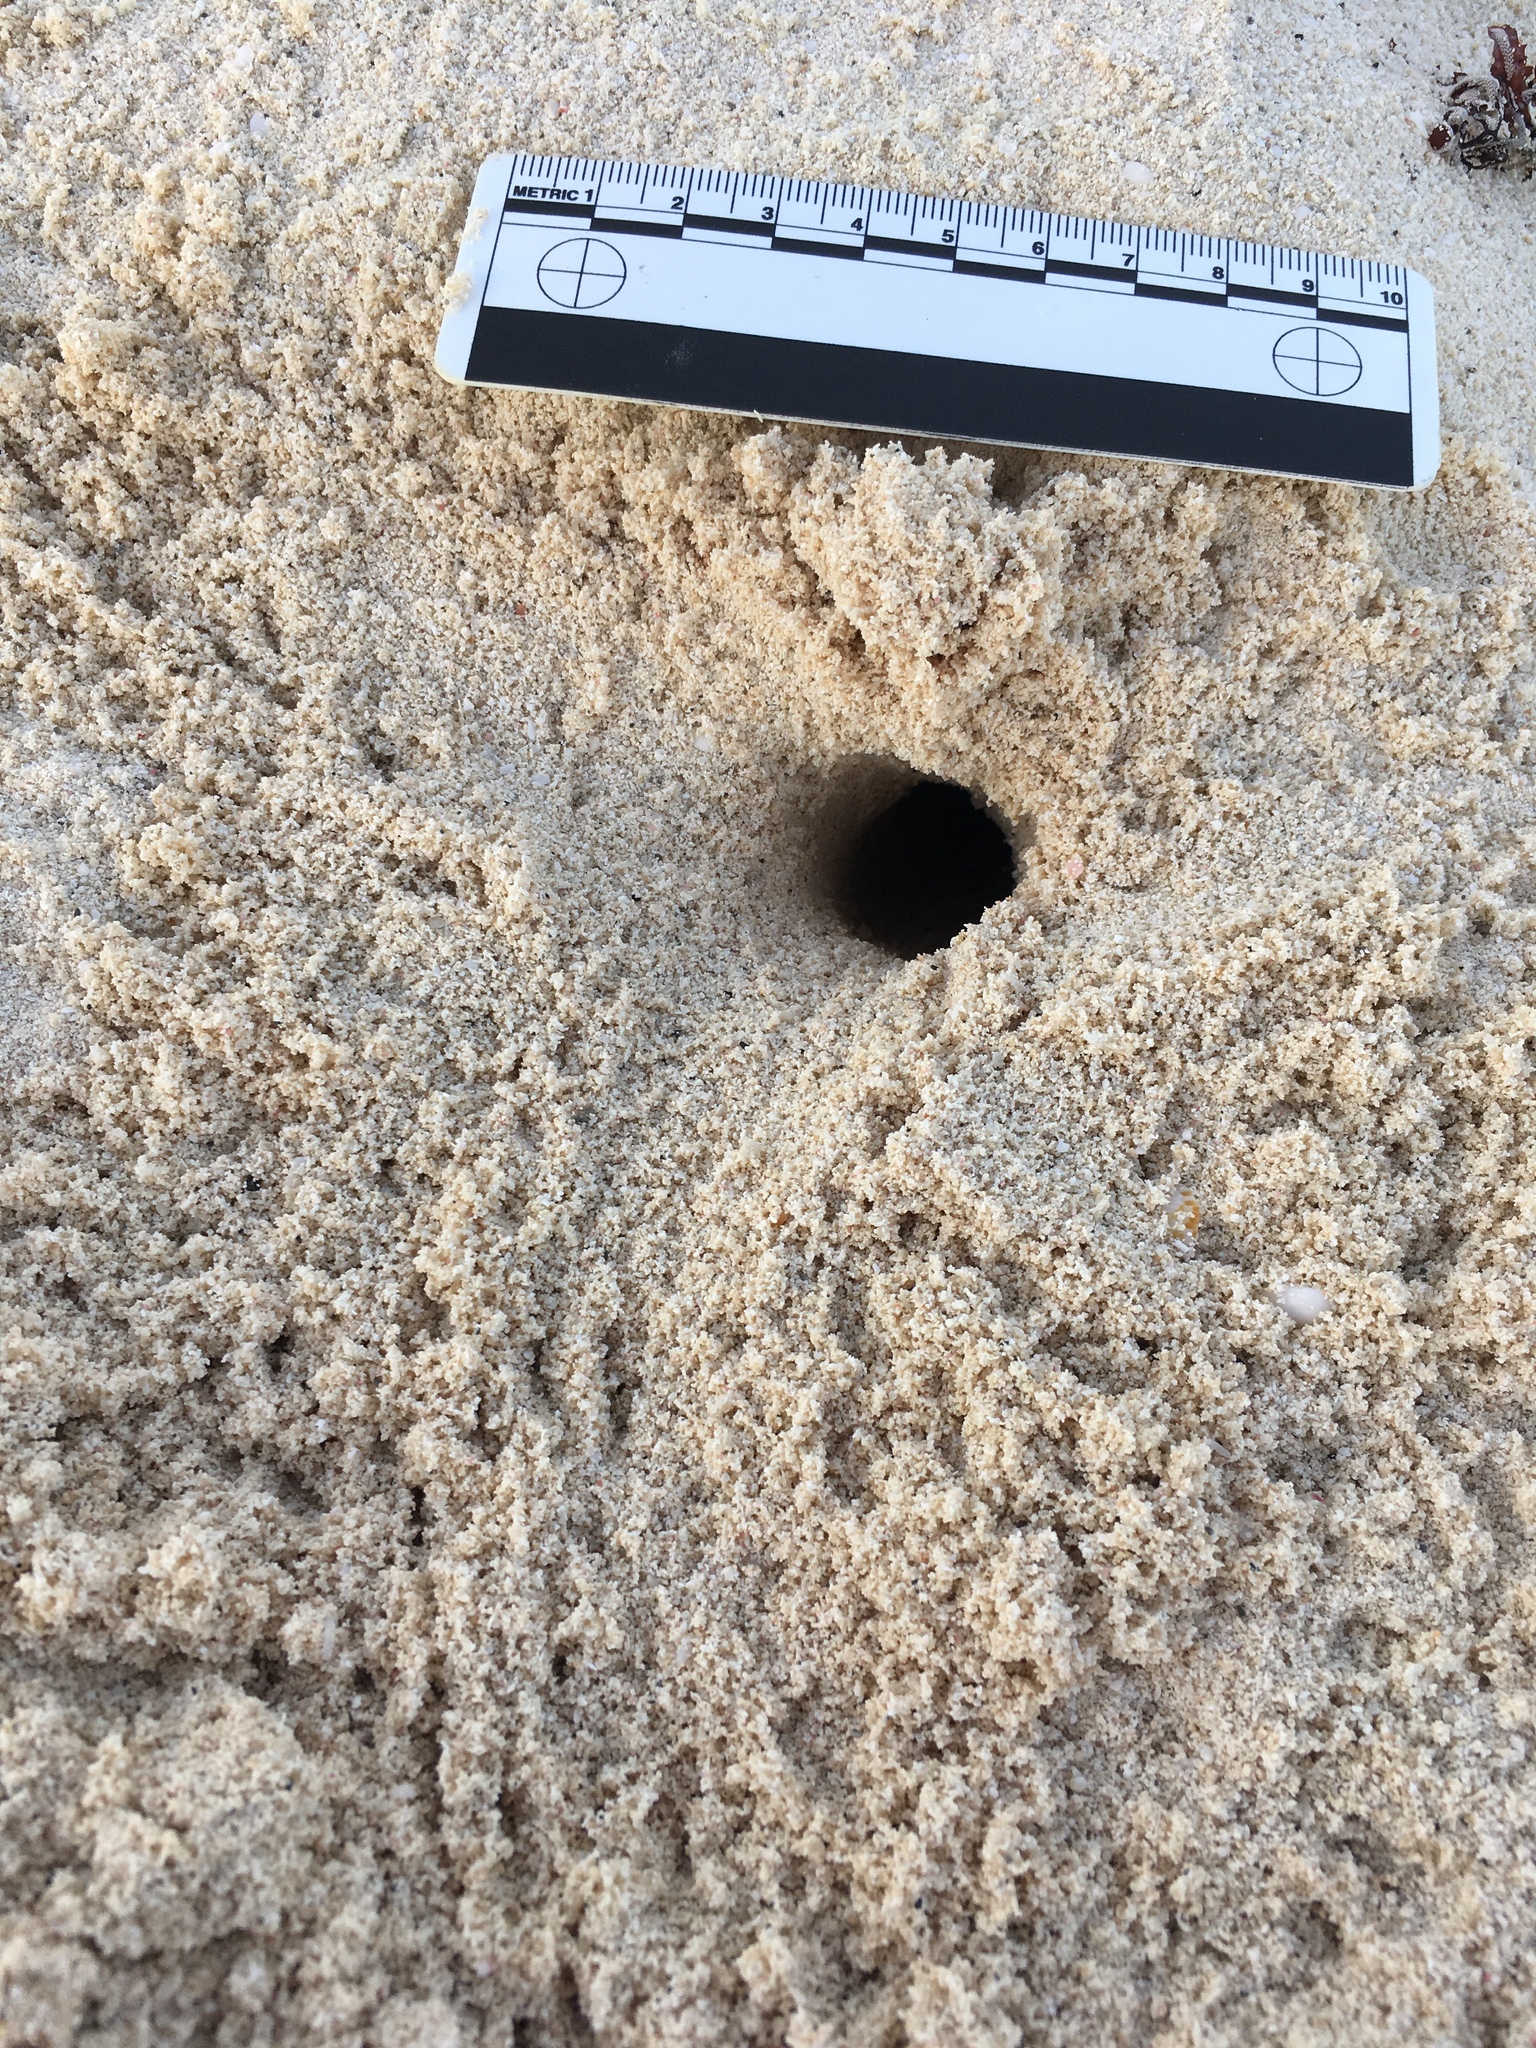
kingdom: Animalia
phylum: Arthropoda
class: Malacostraca
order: Decapoda
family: Ocypodidae
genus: Ocypode
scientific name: Ocypode quadrata
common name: Ghost crab
